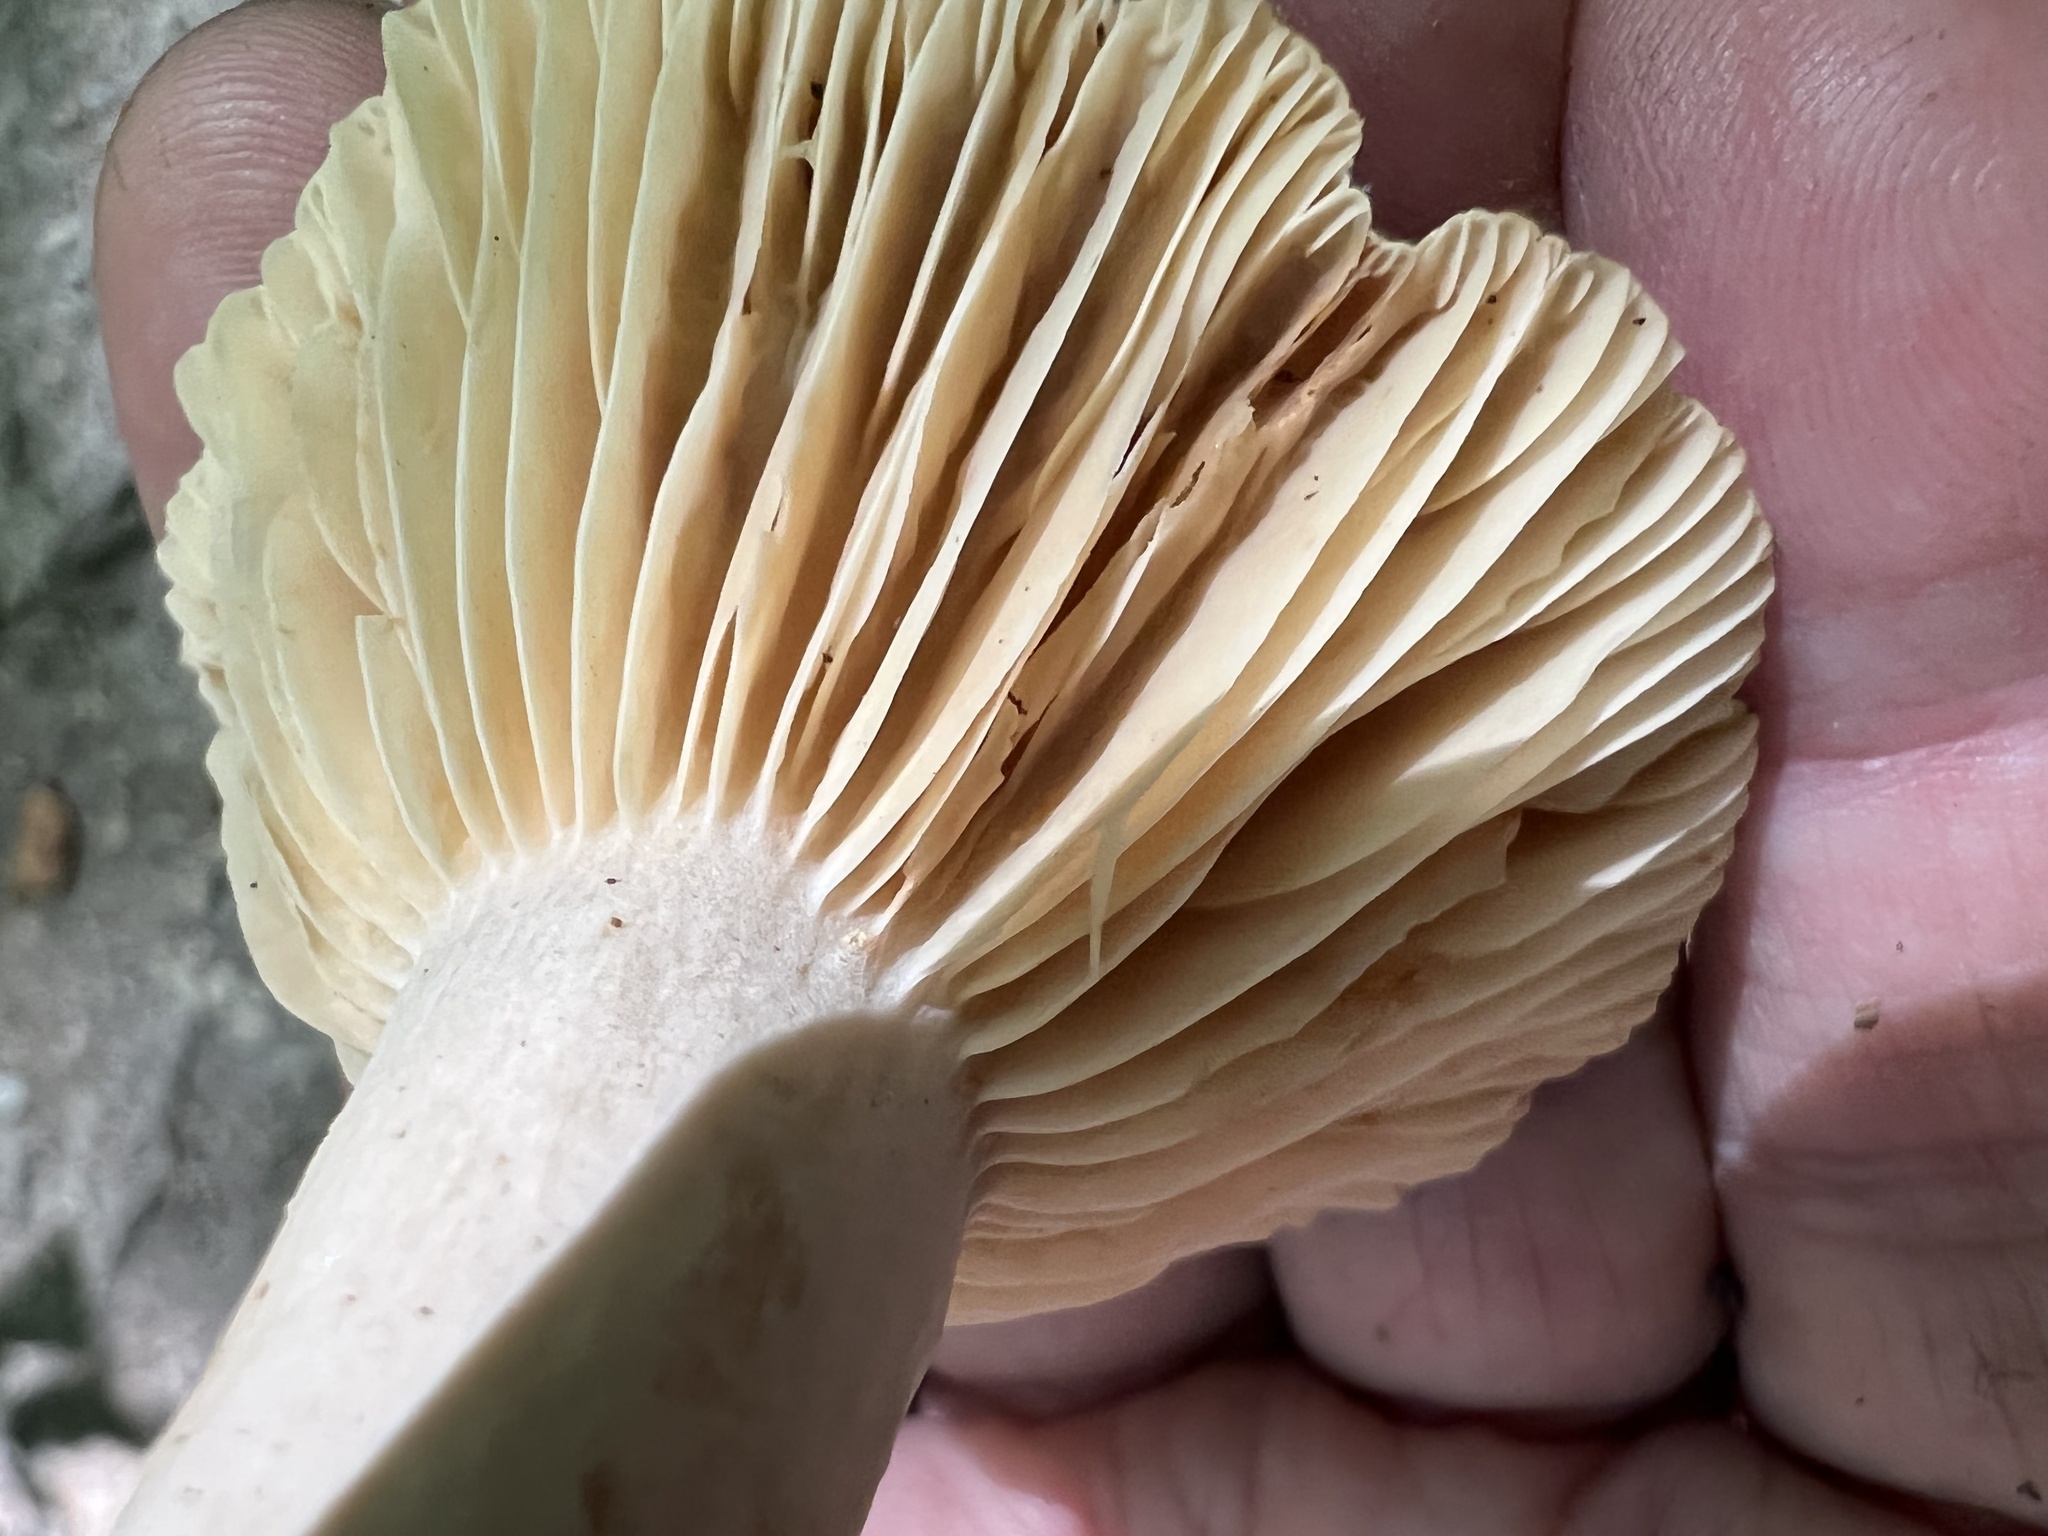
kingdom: Fungi
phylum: Basidiomycota
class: Agaricomycetes
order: Russulales
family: Russulaceae
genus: Lactarius
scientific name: Lactarius subplinthogalus
